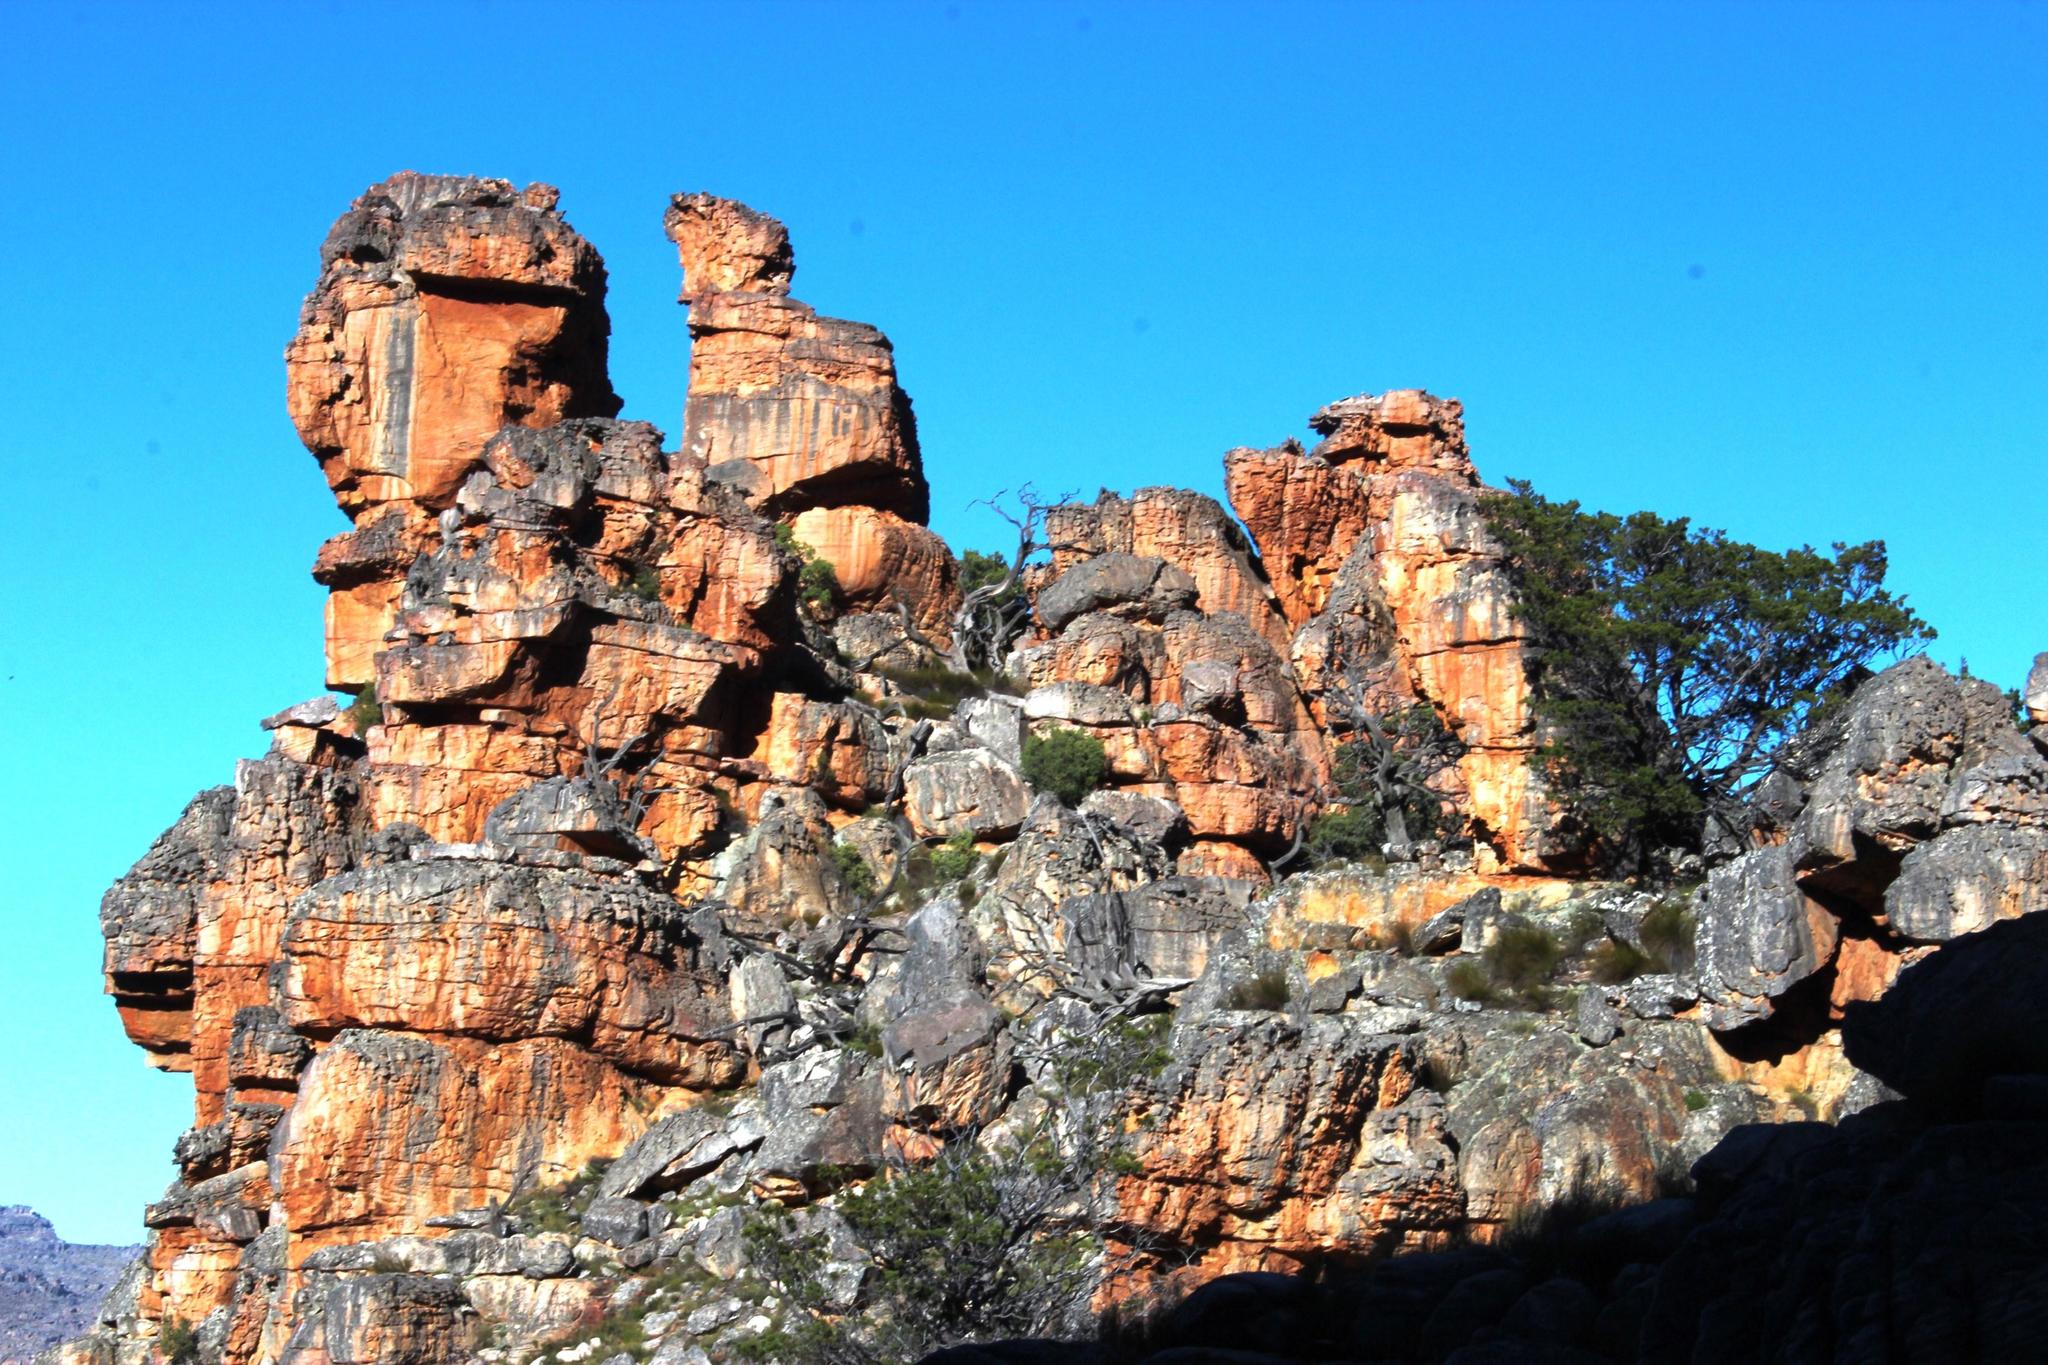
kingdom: Plantae
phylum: Tracheophyta
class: Pinopsida
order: Pinales
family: Cupressaceae
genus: Widdringtonia
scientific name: Widdringtonia nodiflora
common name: Cape cypress
